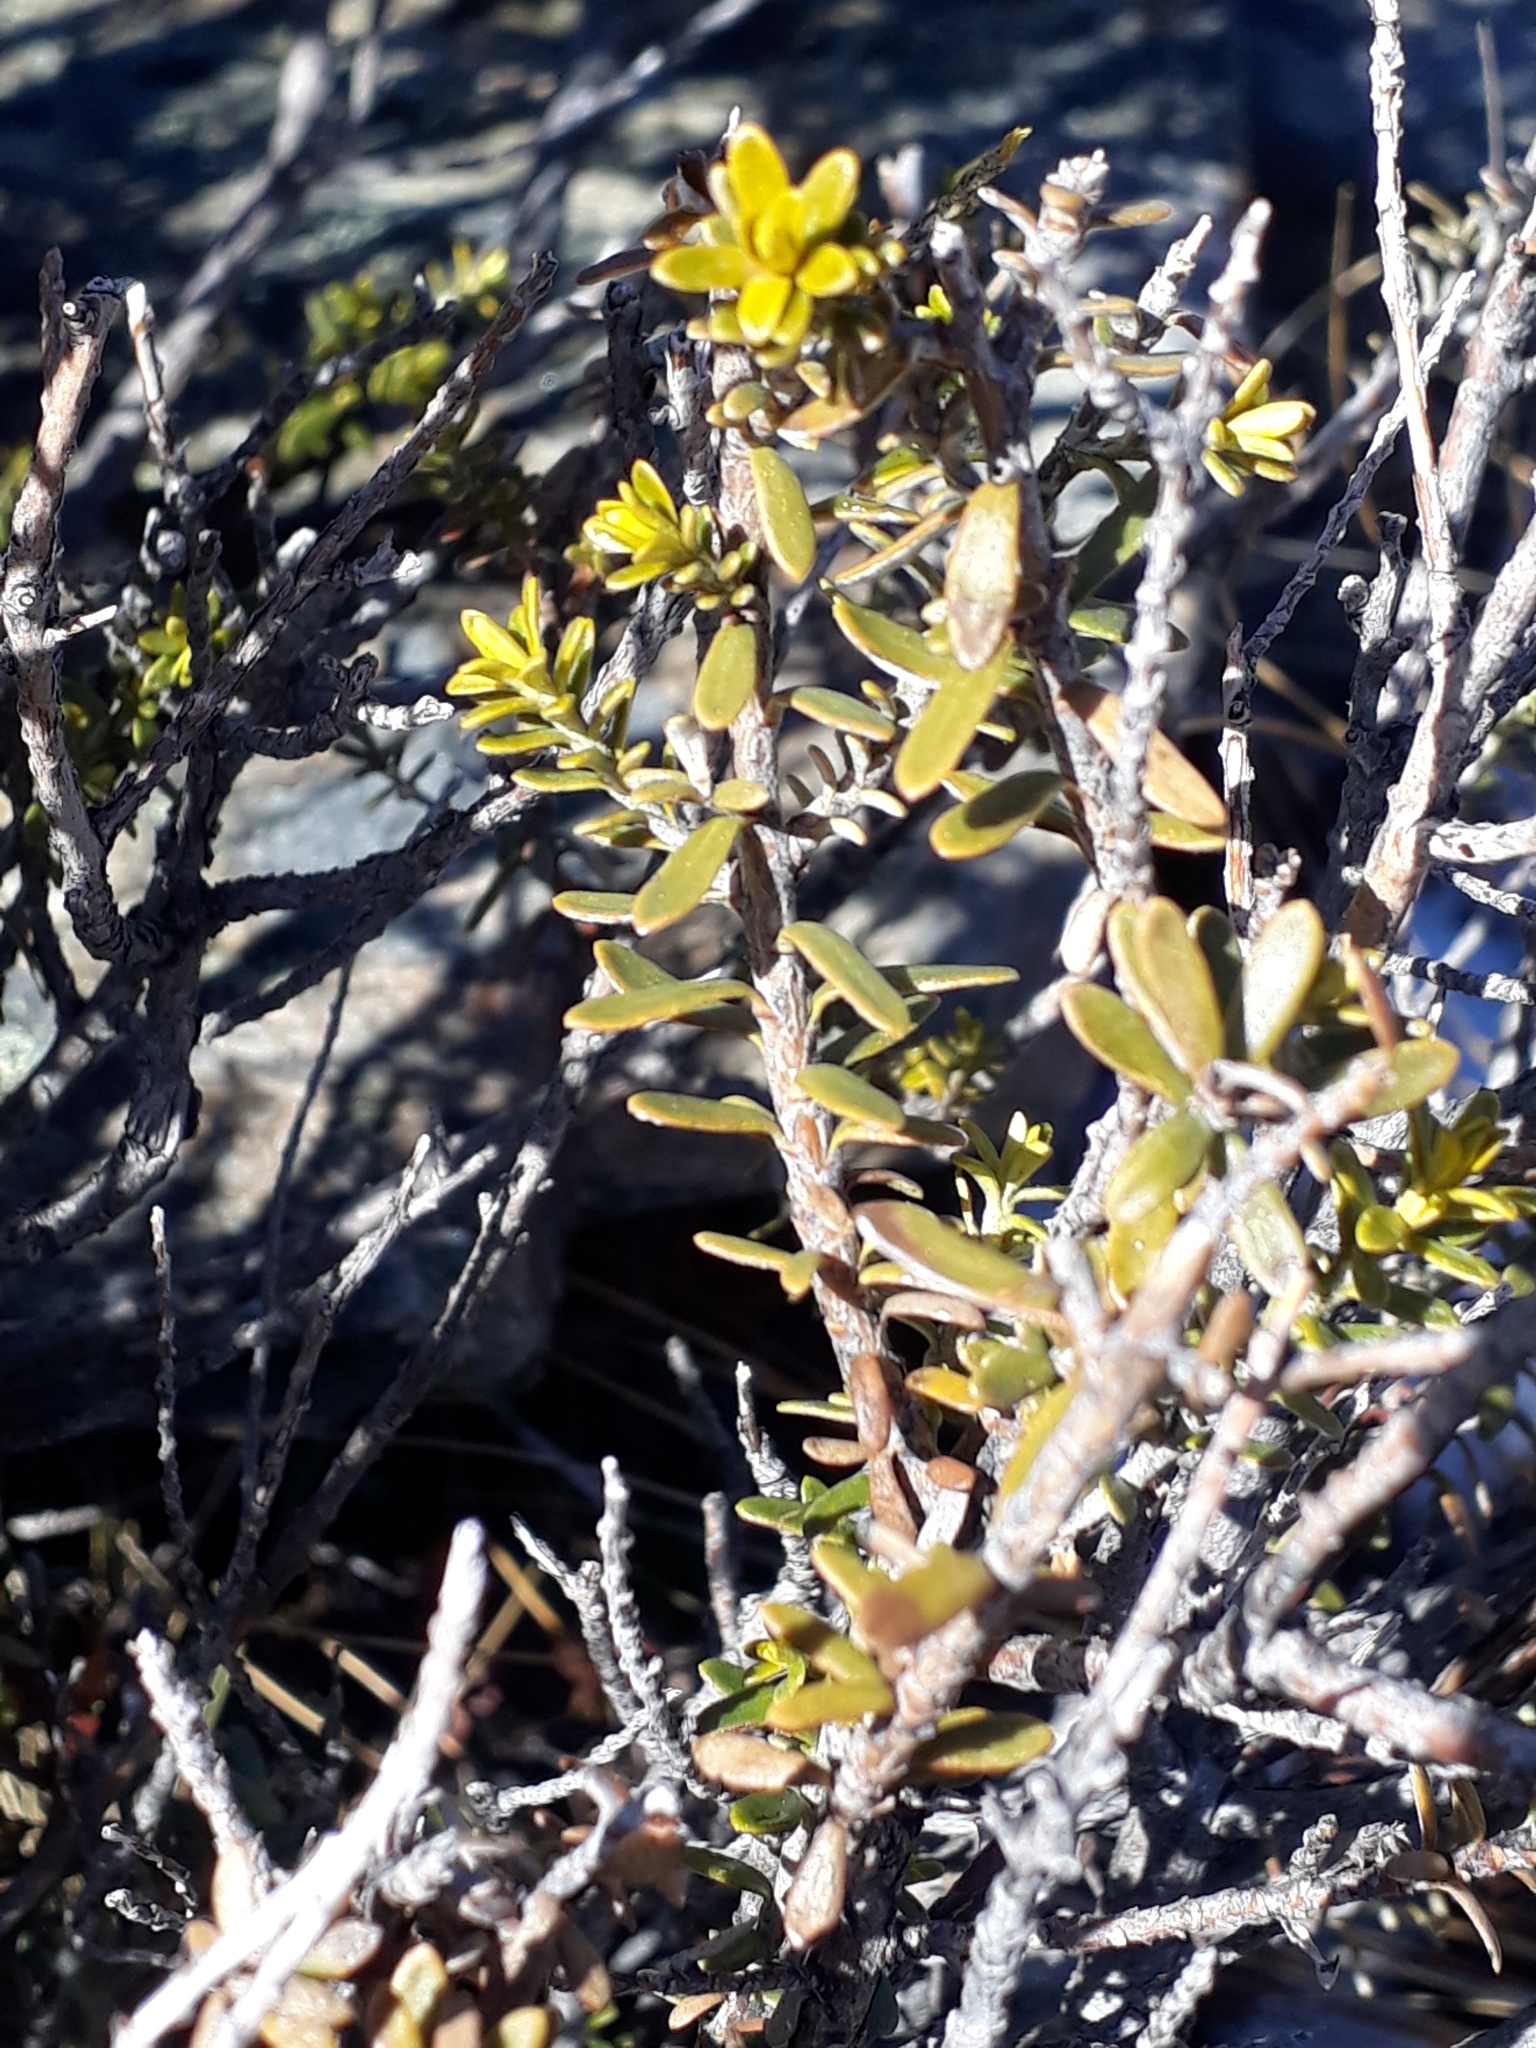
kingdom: Plantae
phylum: Tracheophyta
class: Magnoliopsida
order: Asterales
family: Asteraceae
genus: Ozothamnus
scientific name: Ozothamnus leptophyllus
